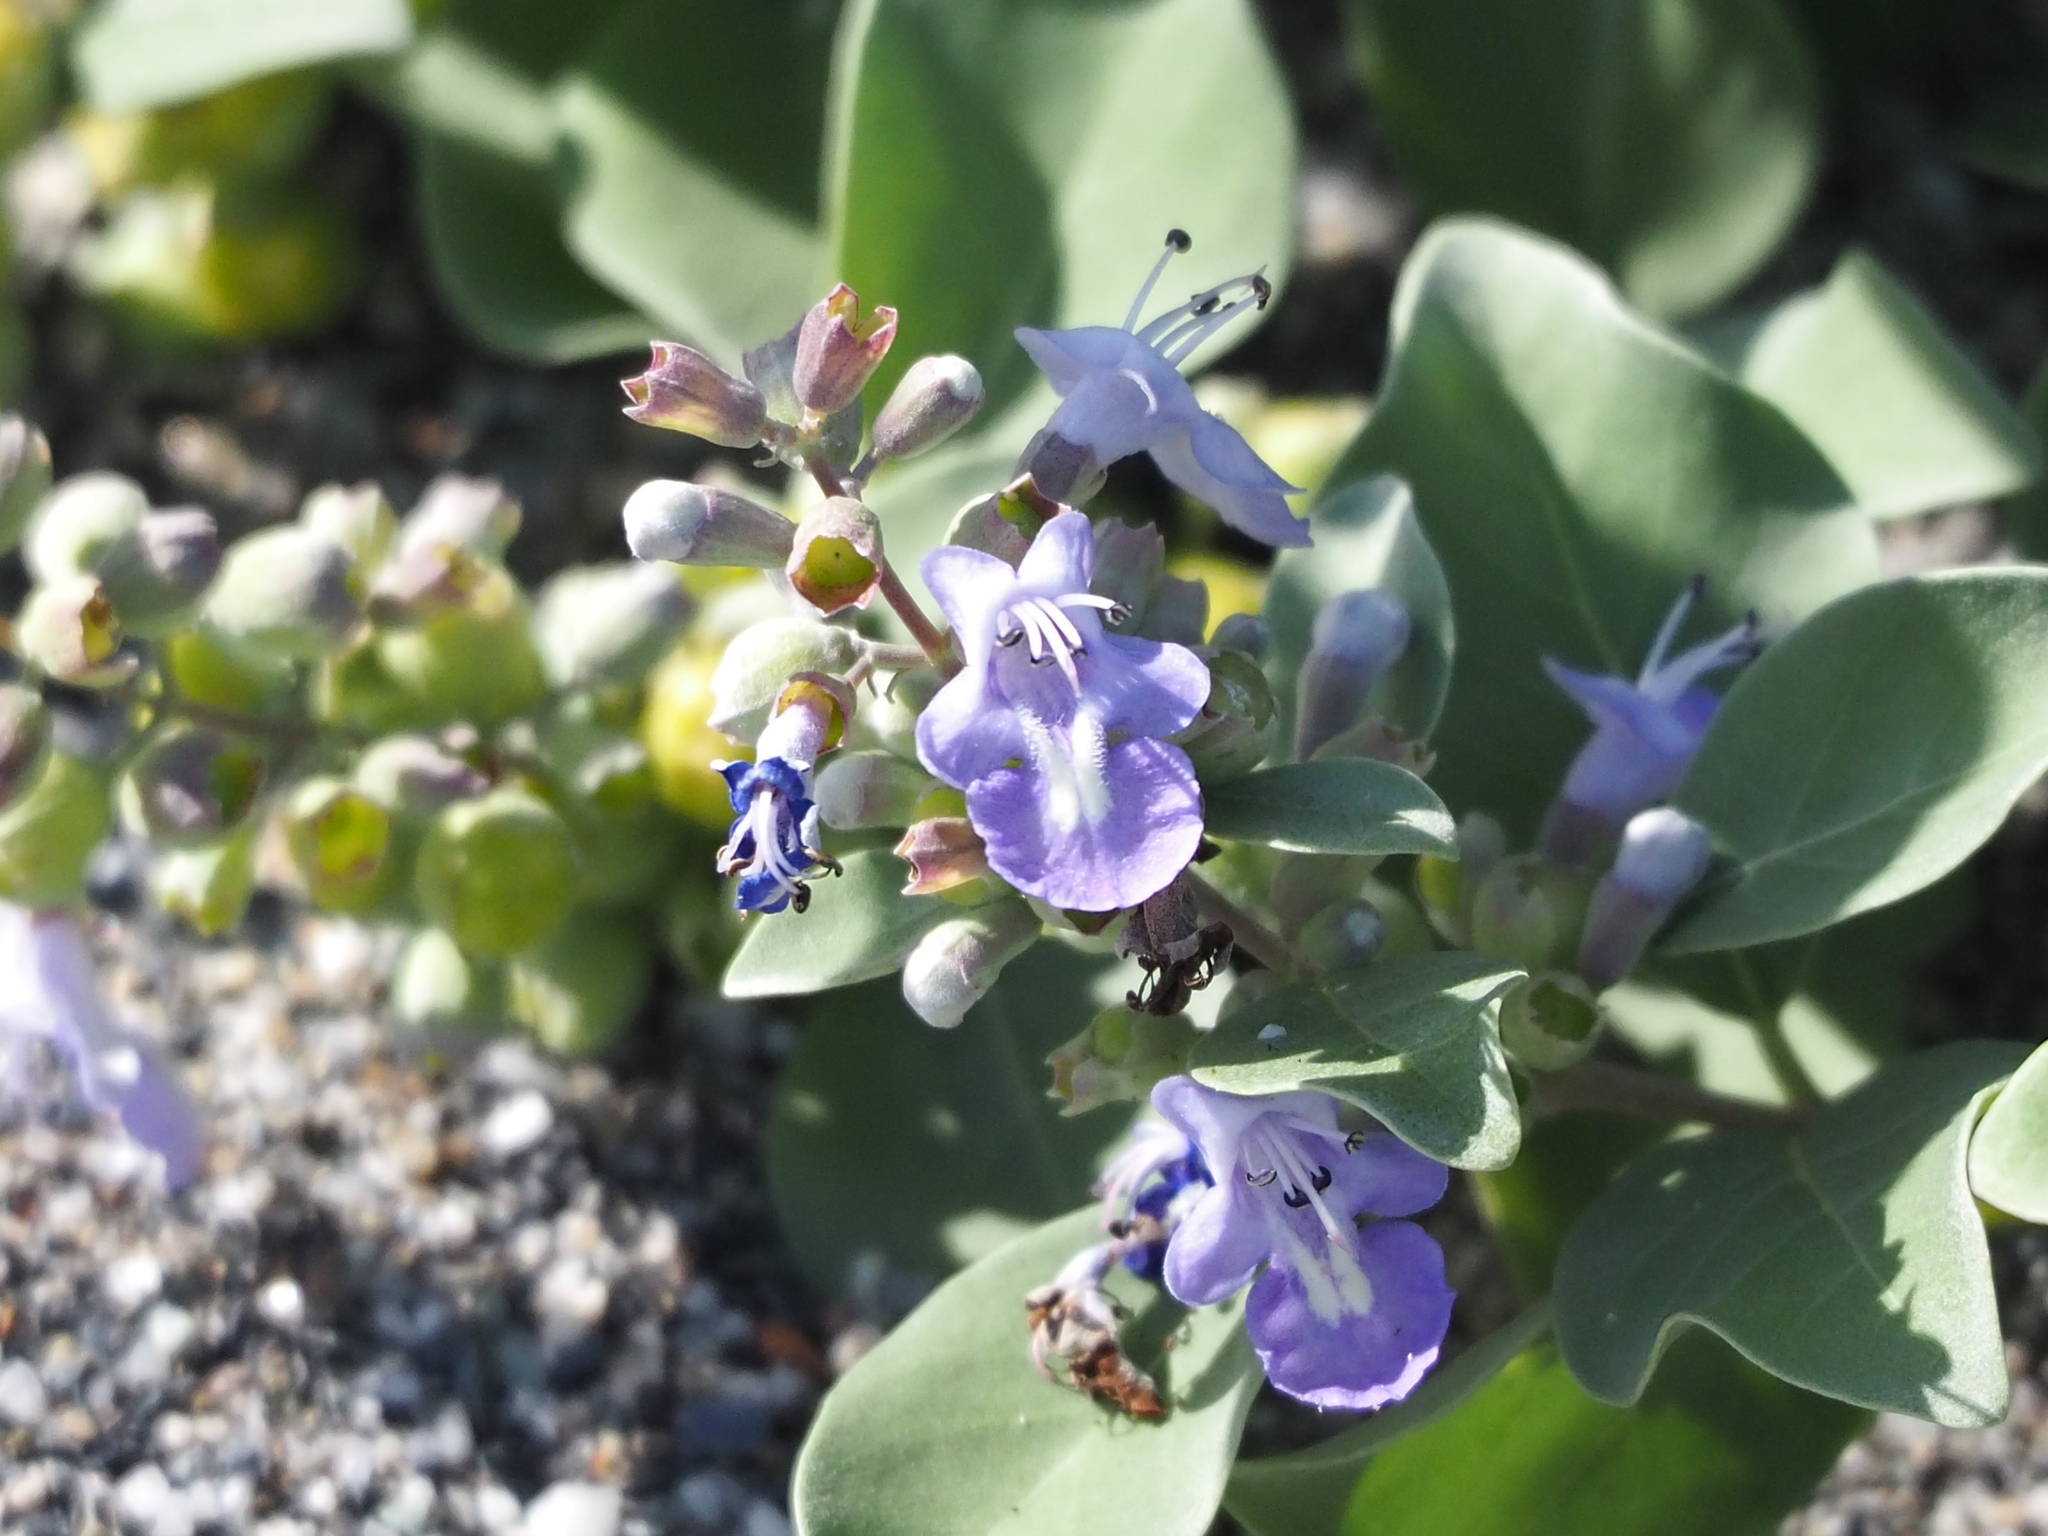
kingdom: Plantae
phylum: Tracheophyta
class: Magnoliopsida
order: Lamiales
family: Lamiaceae
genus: Vitex
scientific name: Vitex rotundifolia
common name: Beach vitex
